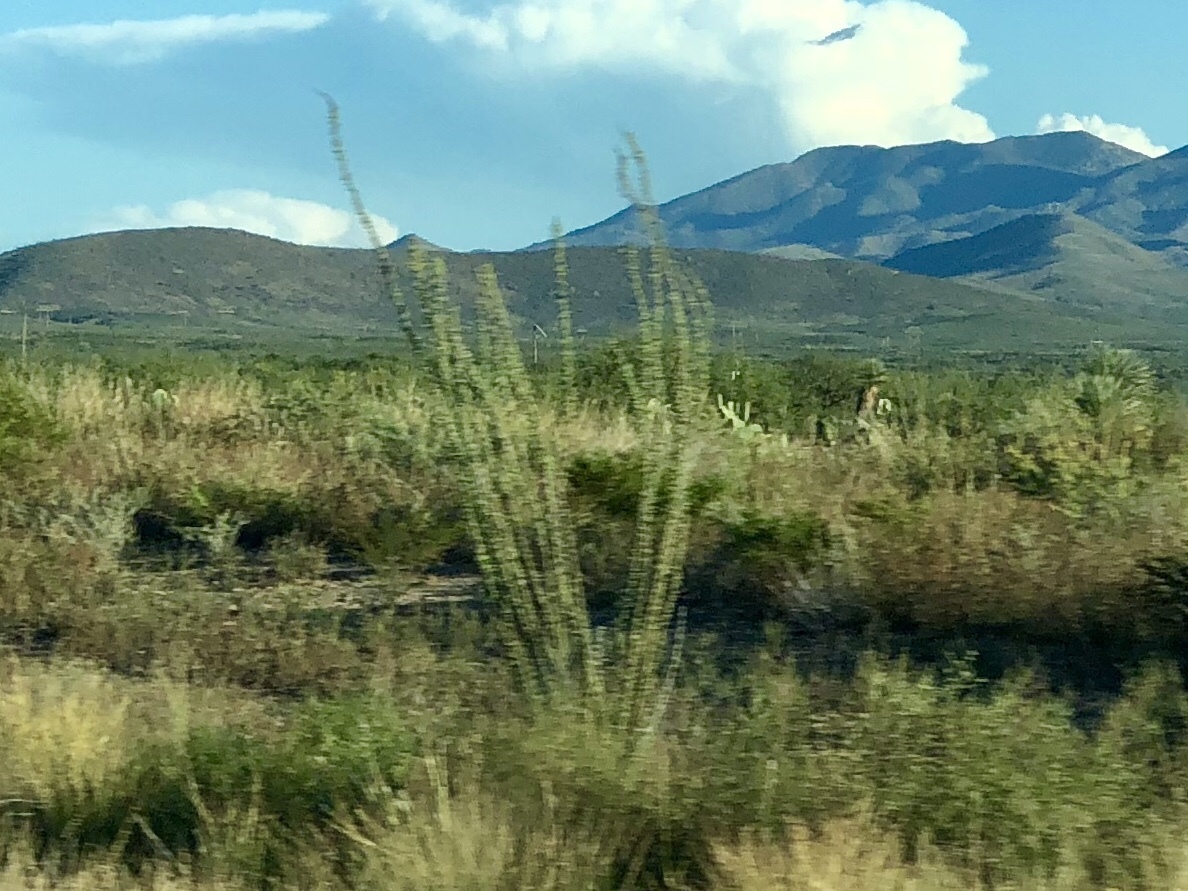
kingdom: Plantae
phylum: Tracheophyta
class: Magnoliopsida
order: Ericales
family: Fouquieriaceae
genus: Fouquieria
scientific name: Fouquieria splendens
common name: Vine-cactus
